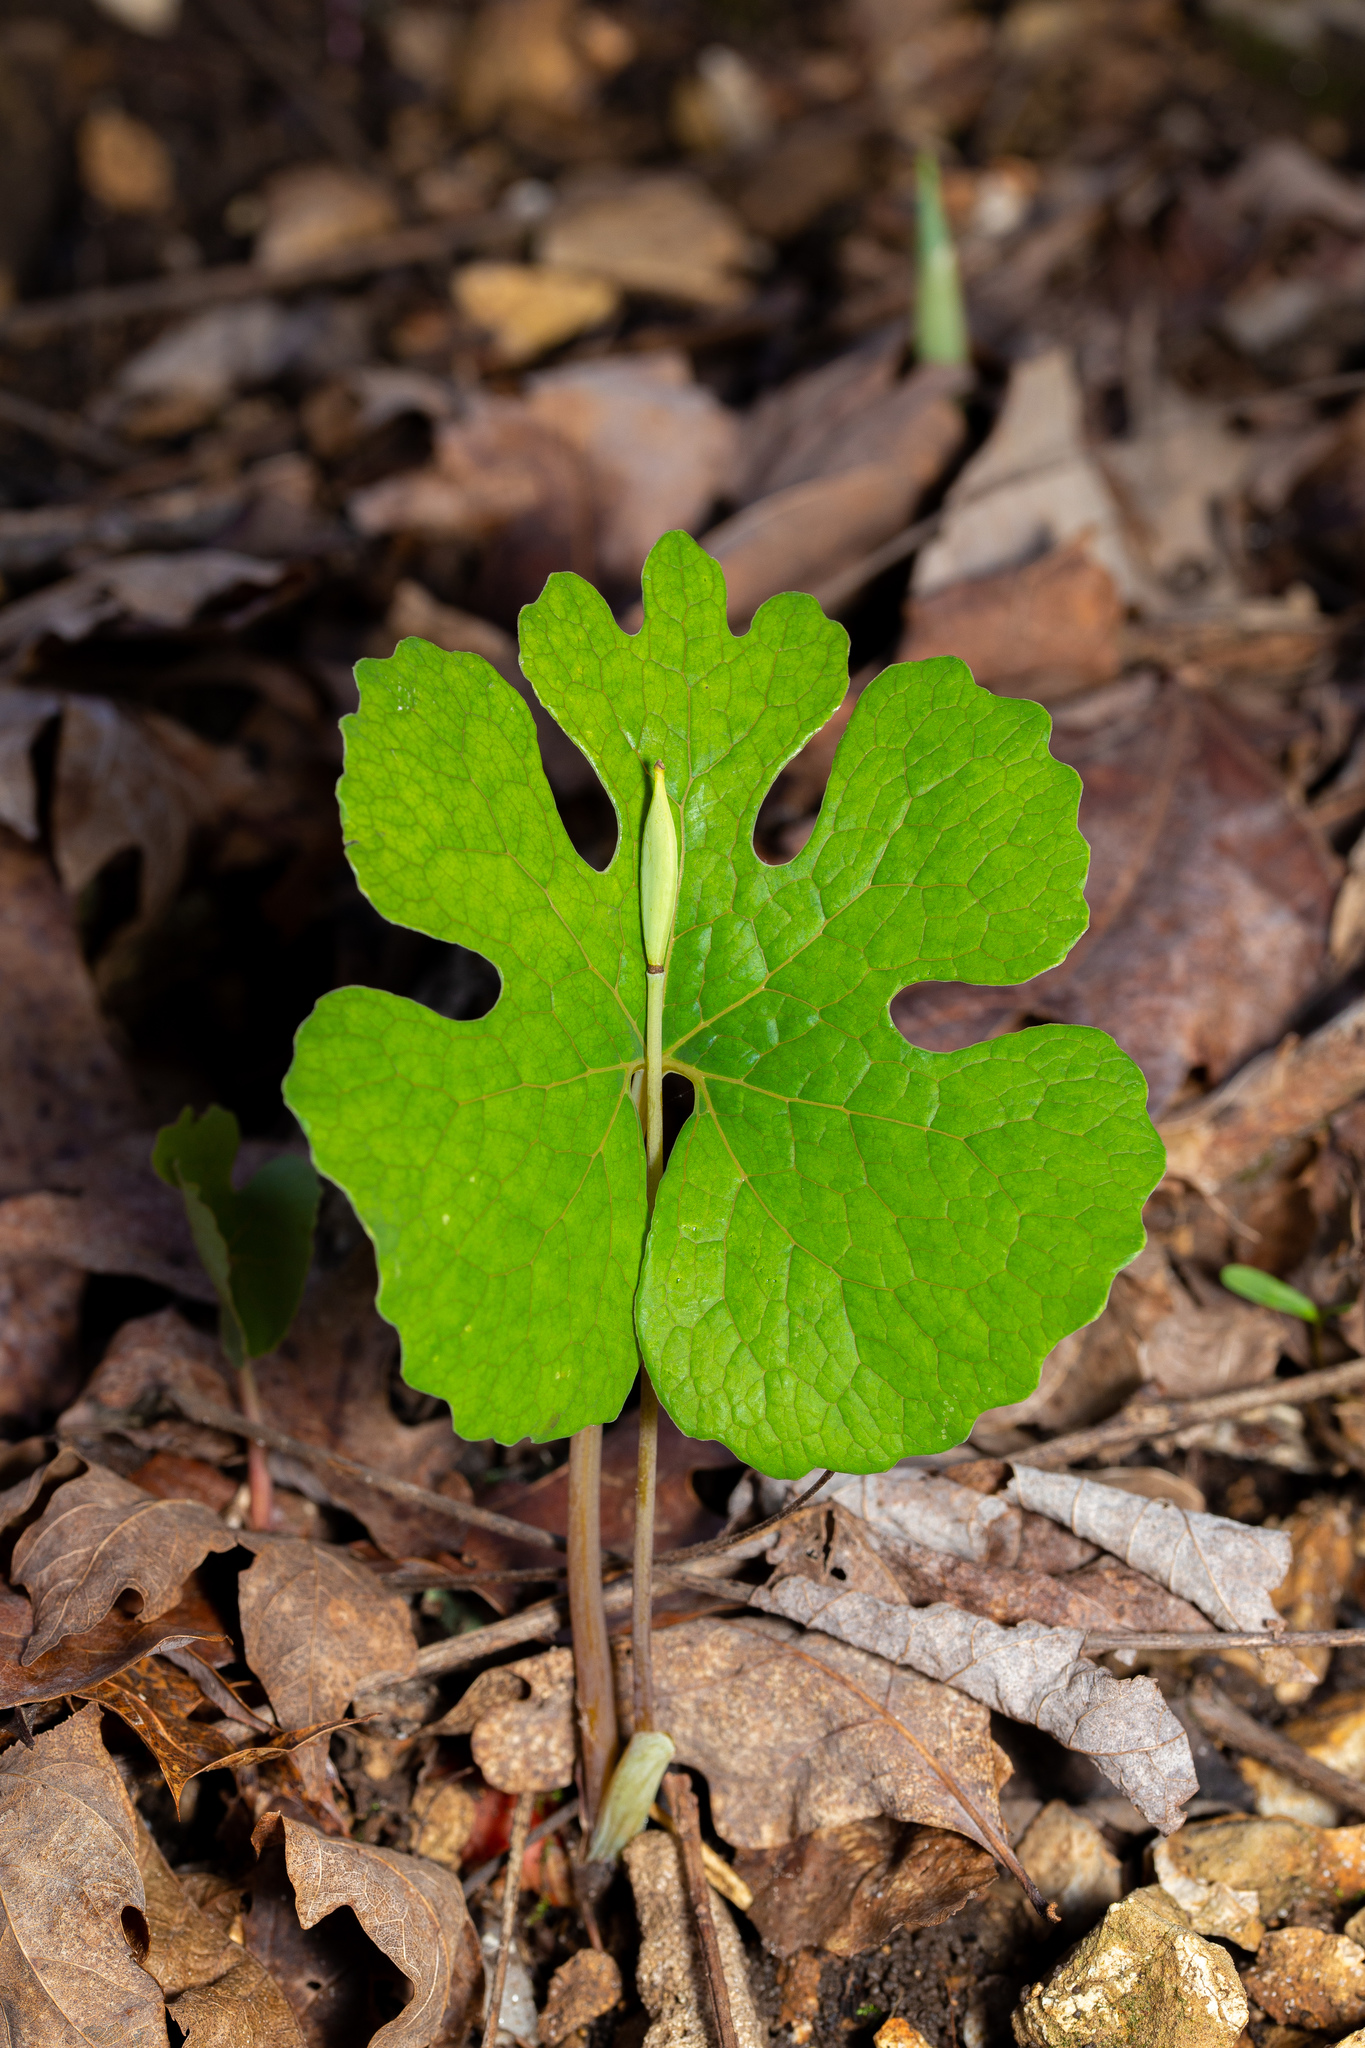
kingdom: Plantae
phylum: Tracheophyta
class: Magnoliopsida
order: Ranunculales
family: Papaveraceae
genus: Sanguinaria
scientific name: Sanguinaria canadensis
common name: Bloodroot
